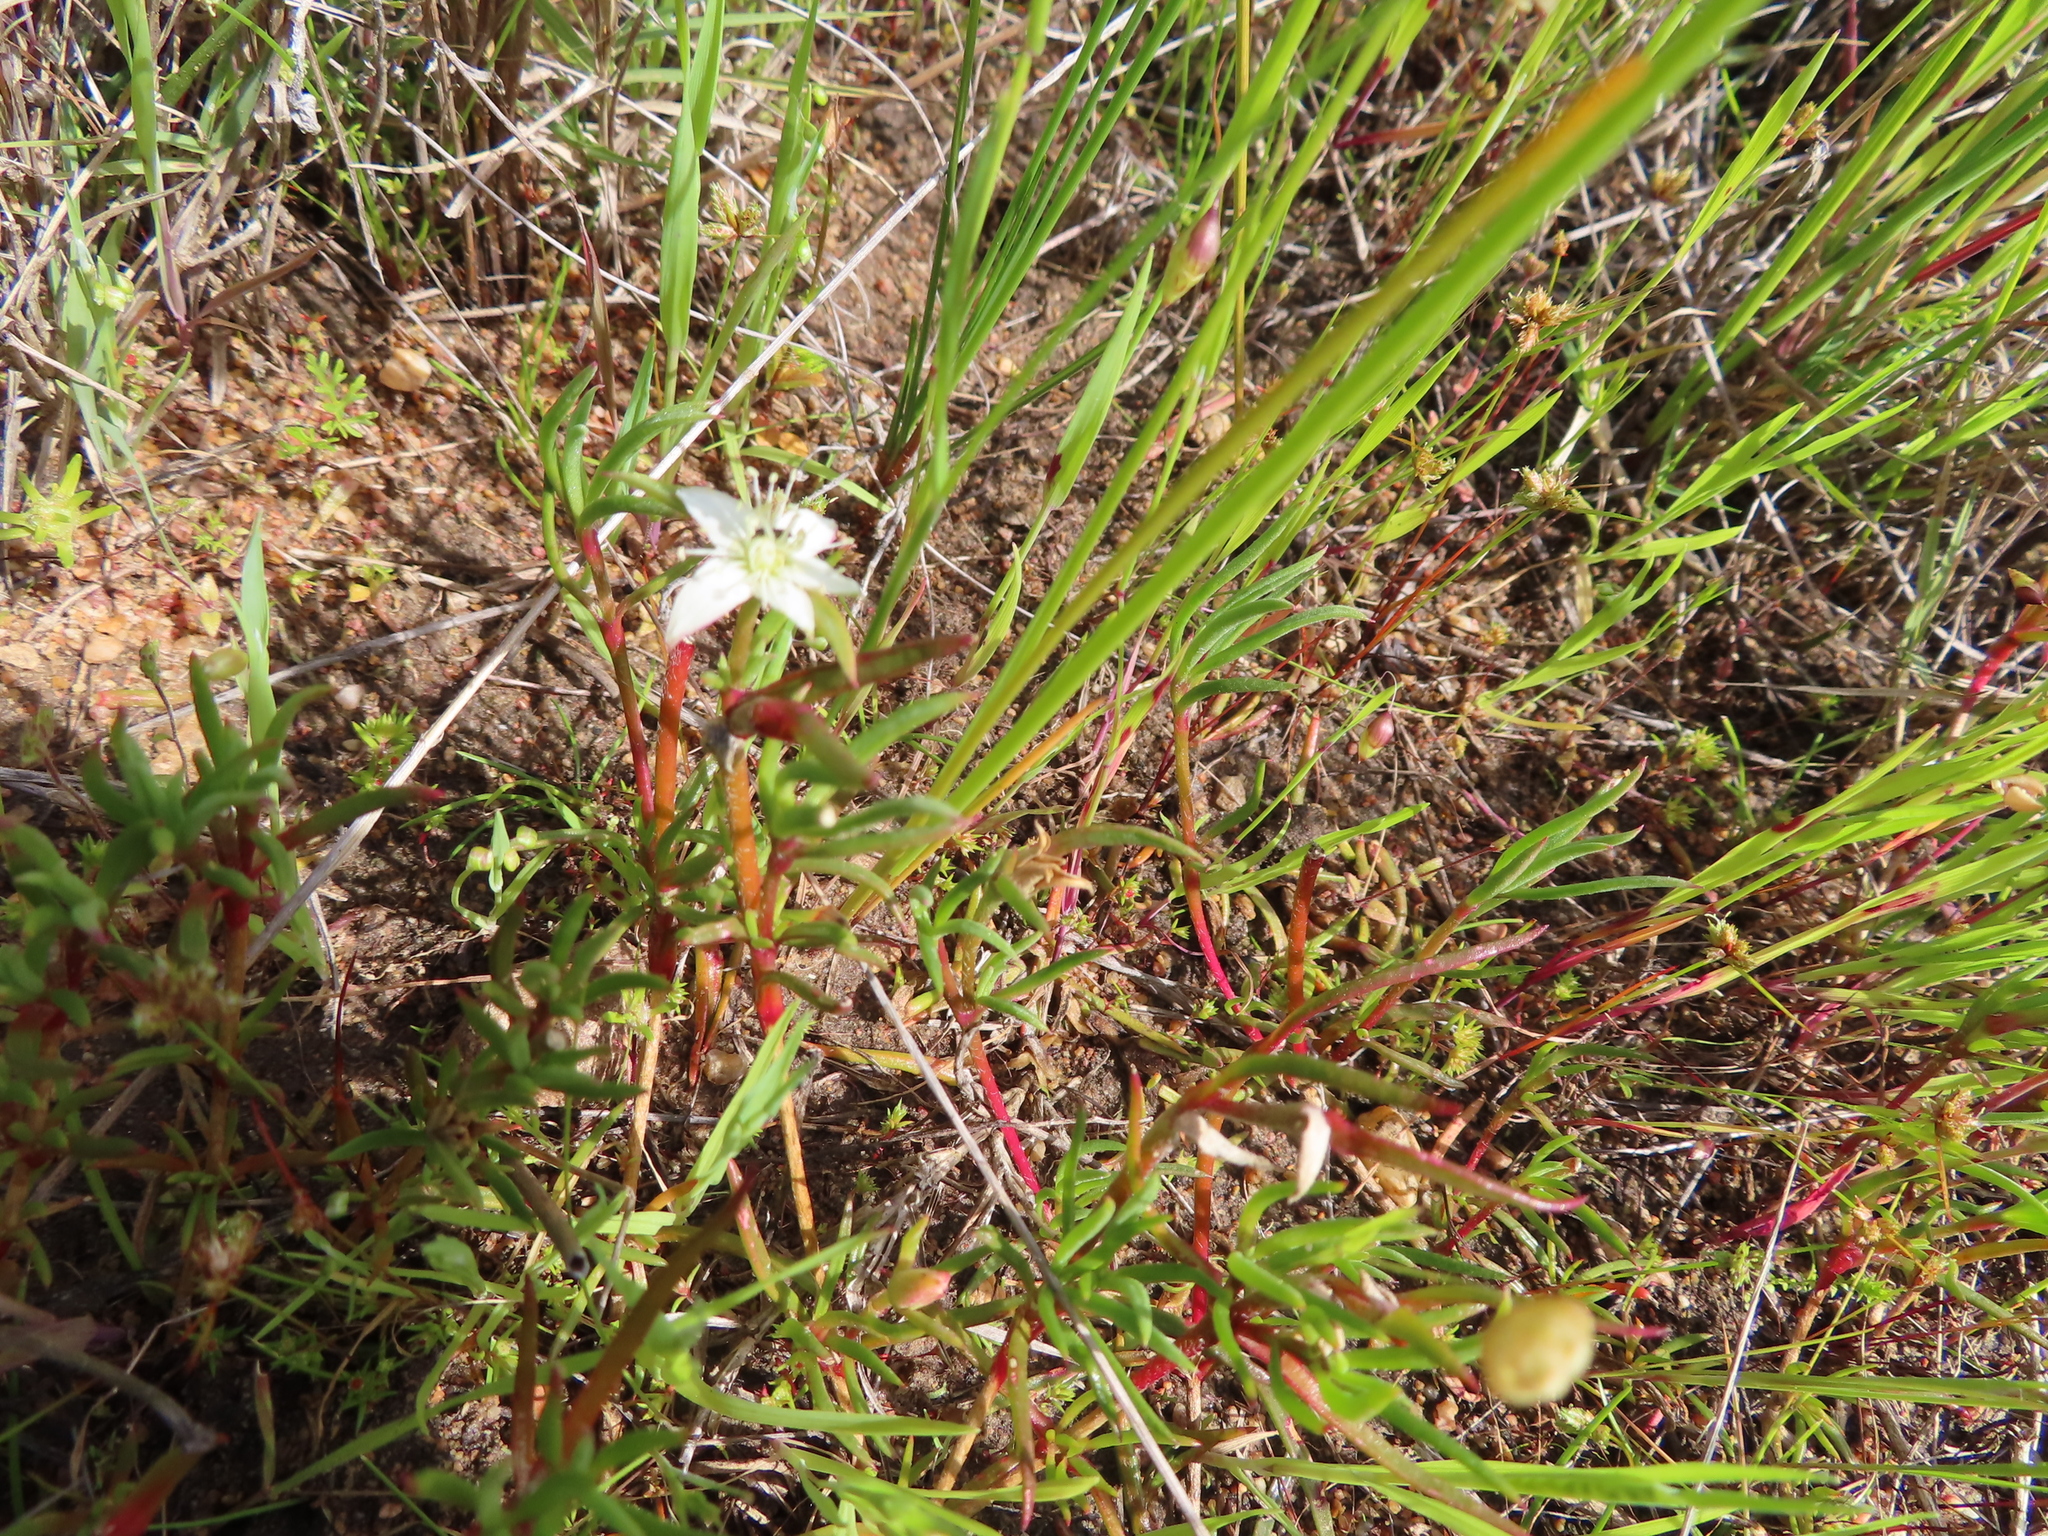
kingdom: Plantae
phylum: Tracheophyta
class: Magnoliopsida
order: Caryophyllales
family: Aizoaceae
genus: Aizoon
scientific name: Aizoon sarmentosum
